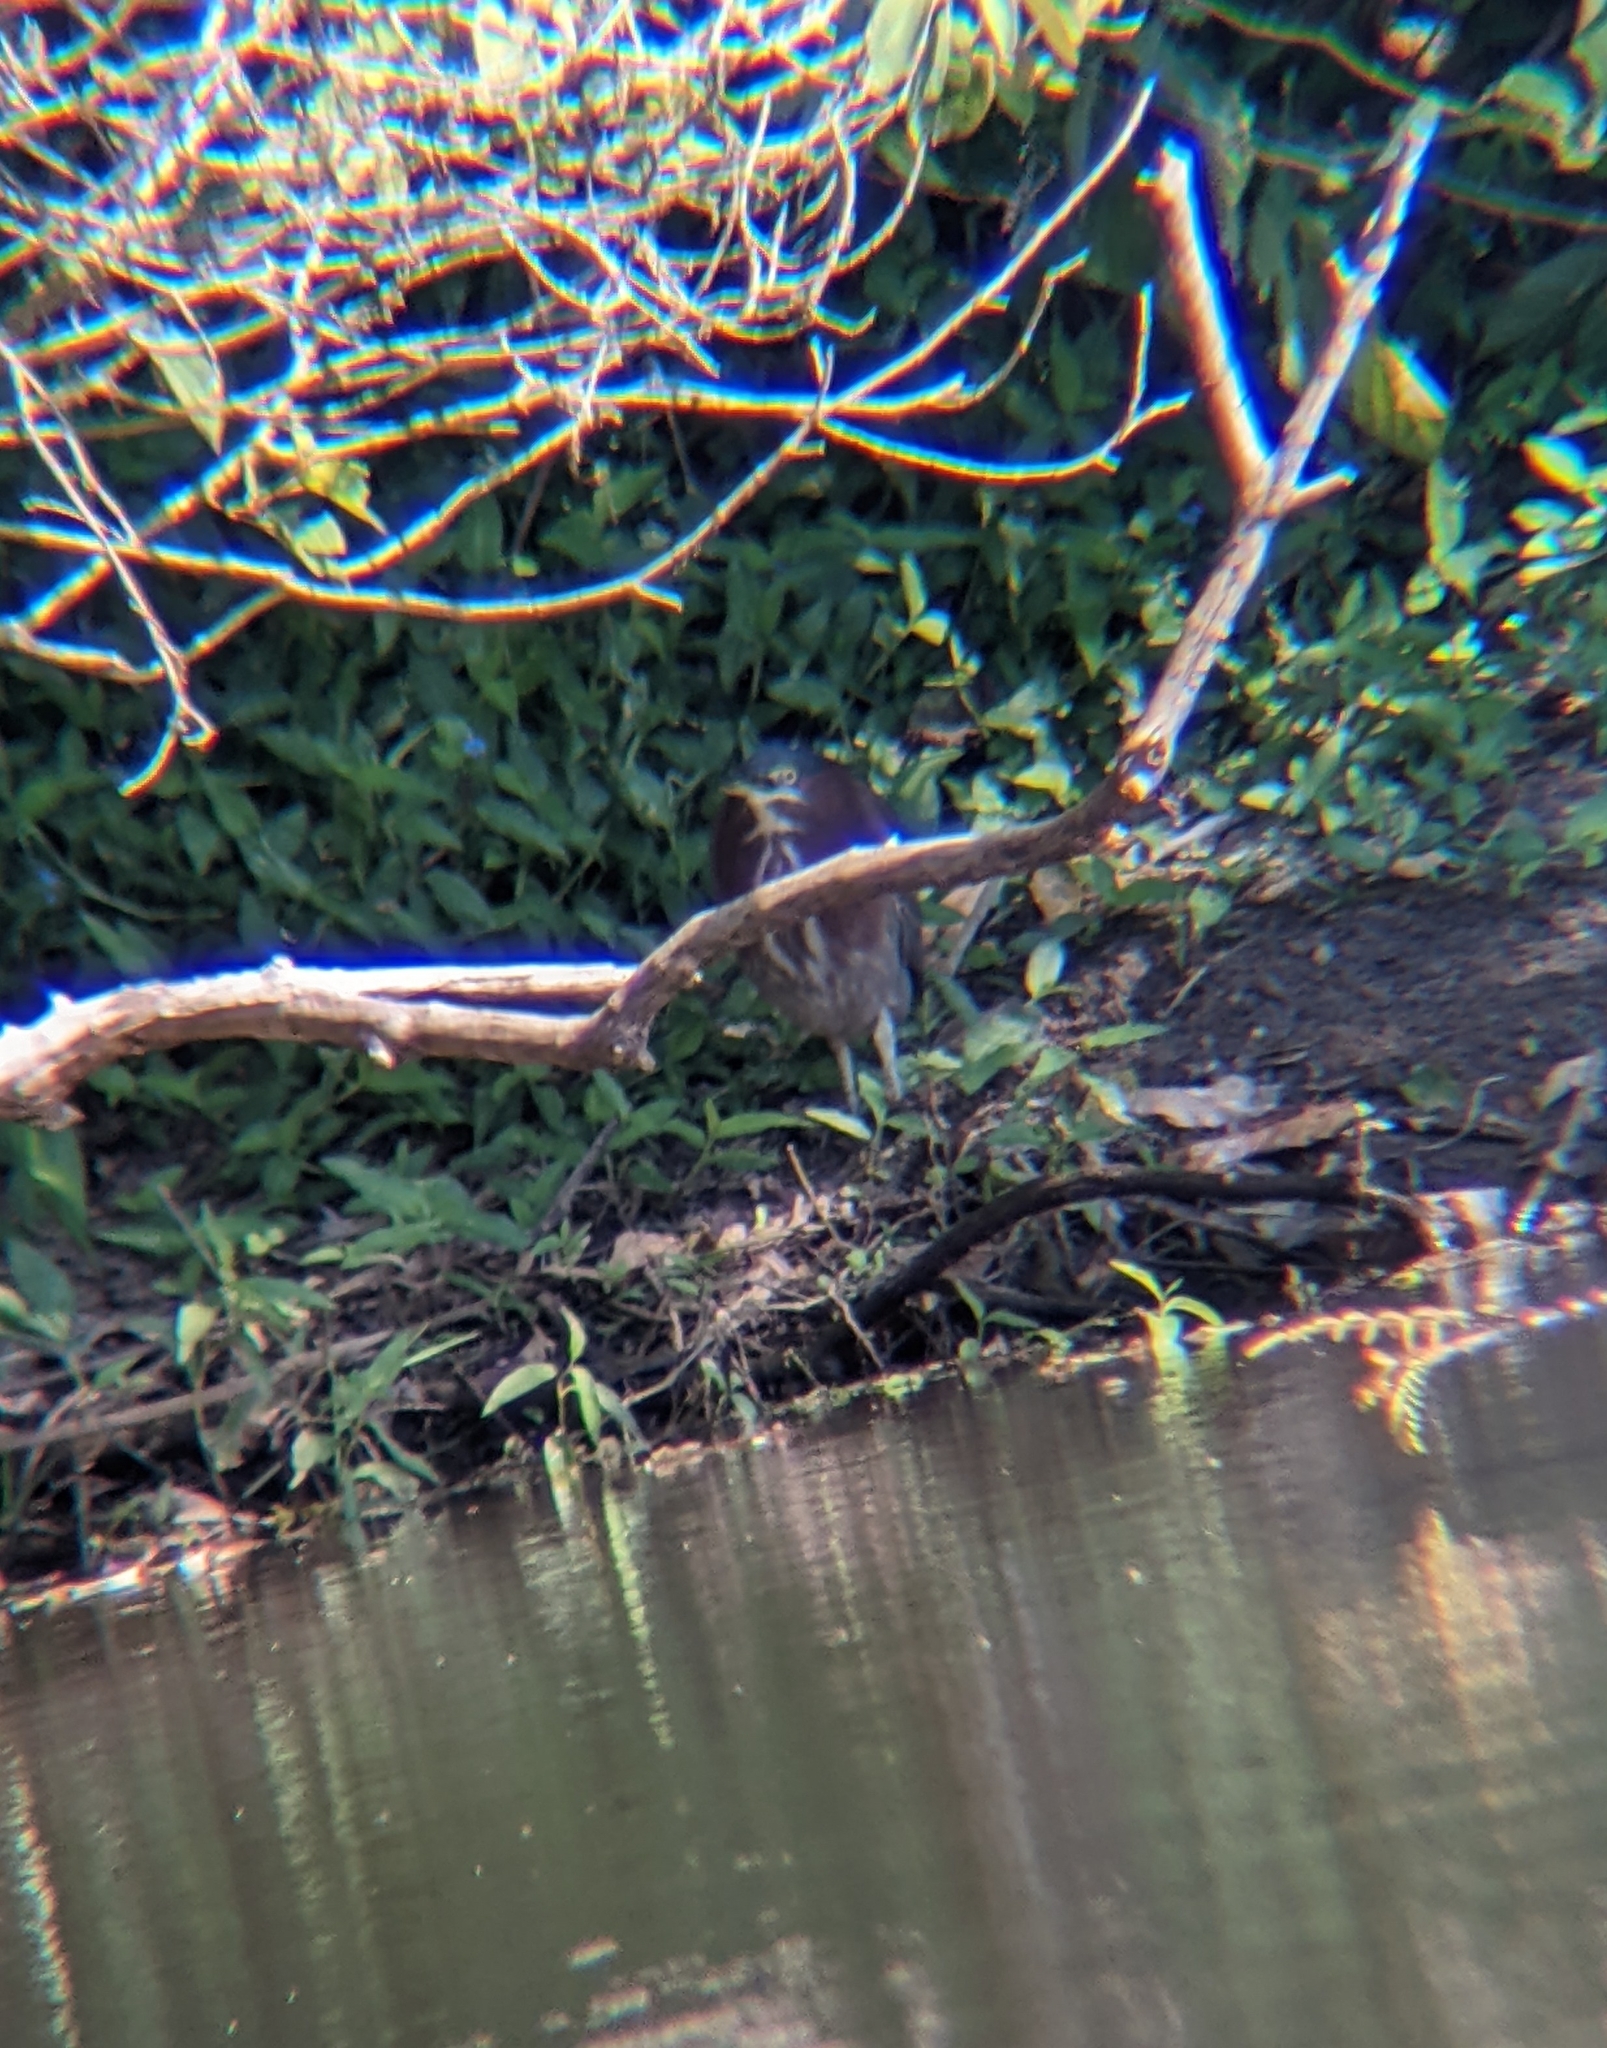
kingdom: Animalia
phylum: Chordata
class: Aves
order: Pelecaniformes
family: Ardeidae
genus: Butorides
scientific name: Butorides virescens
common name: Green heron
